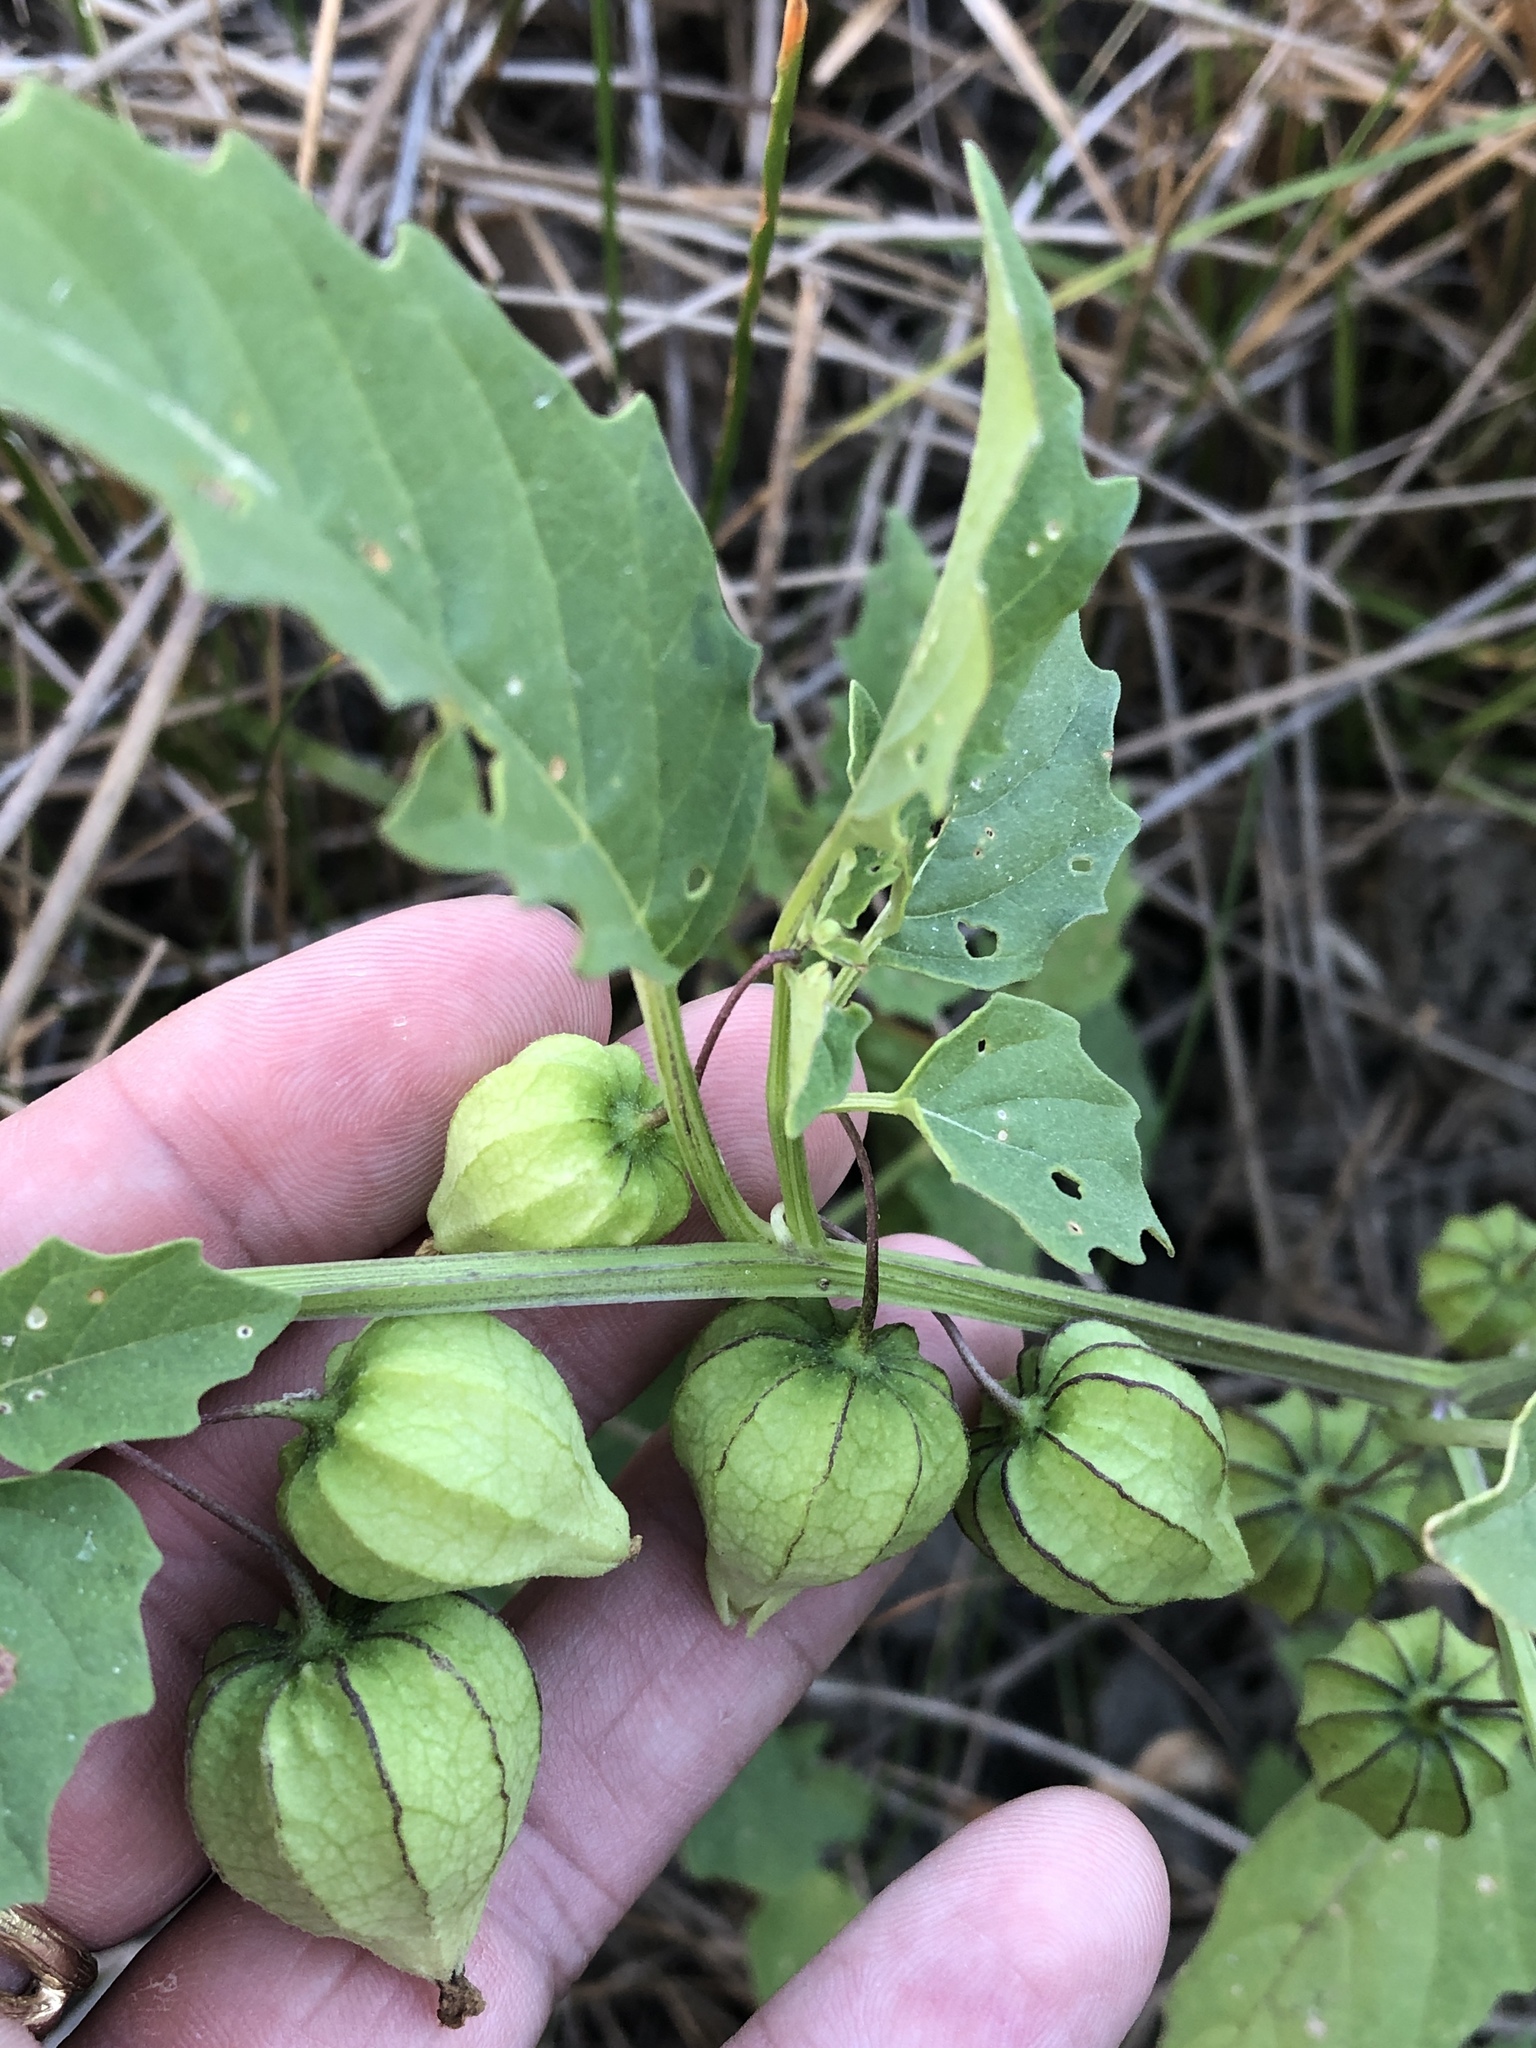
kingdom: Plantae
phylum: Tracheophyta
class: Magnoliopsida
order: Solanales
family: Solanaceae
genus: Physalis
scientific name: Physalis angulata
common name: Angular winter-cherry
